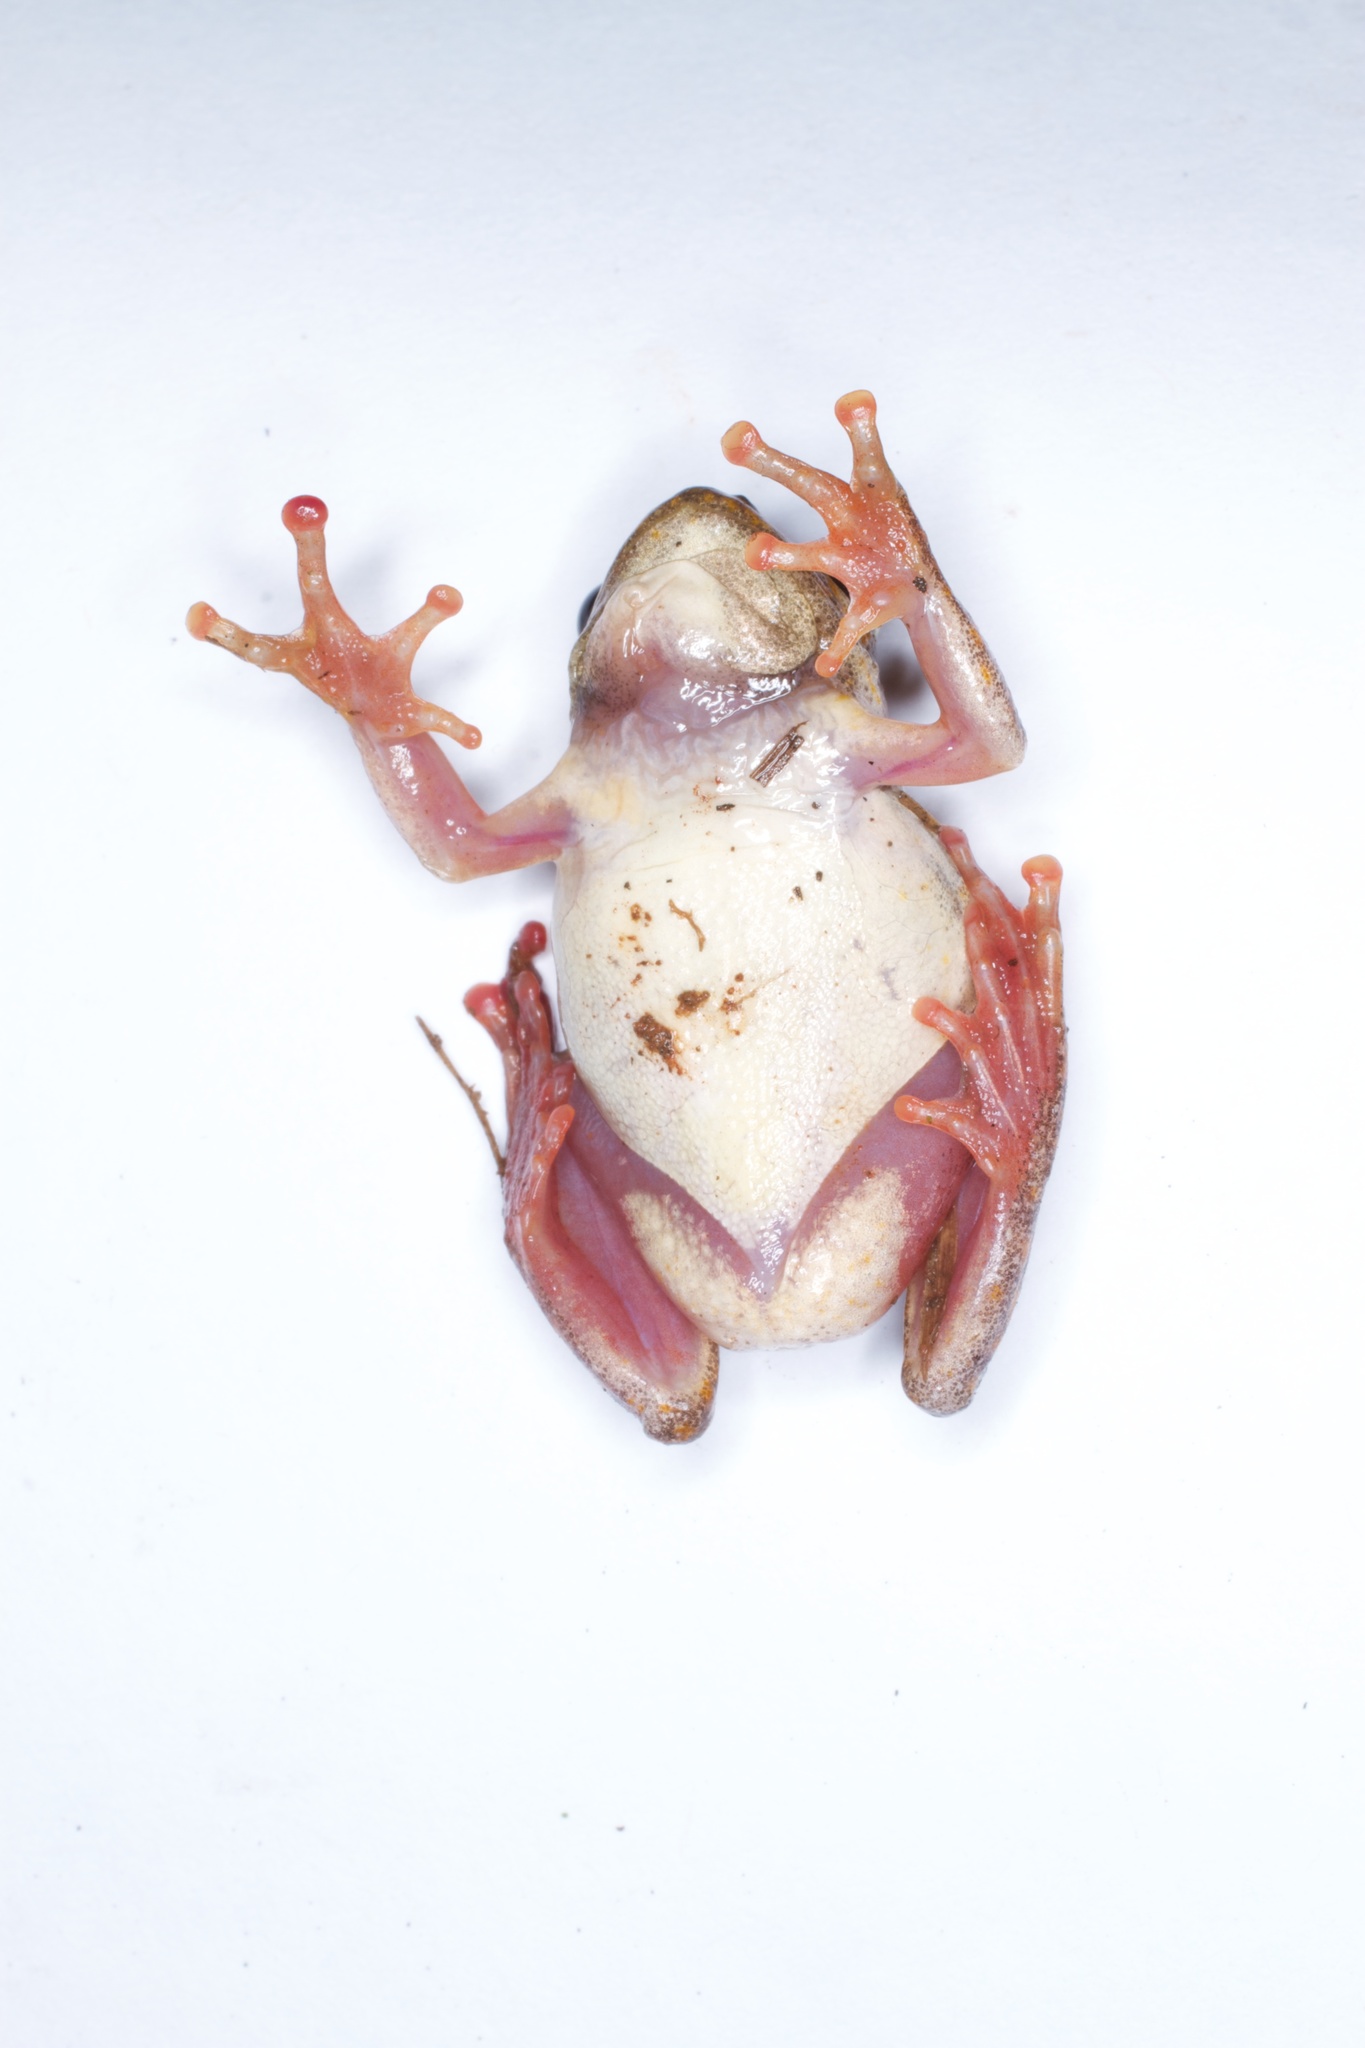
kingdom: Animalia
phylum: Chordata
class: Amphibia
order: Anura
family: Hyperoliidae
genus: Hyperolius
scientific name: Hyperolius marmoratus
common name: Painted reed frog
